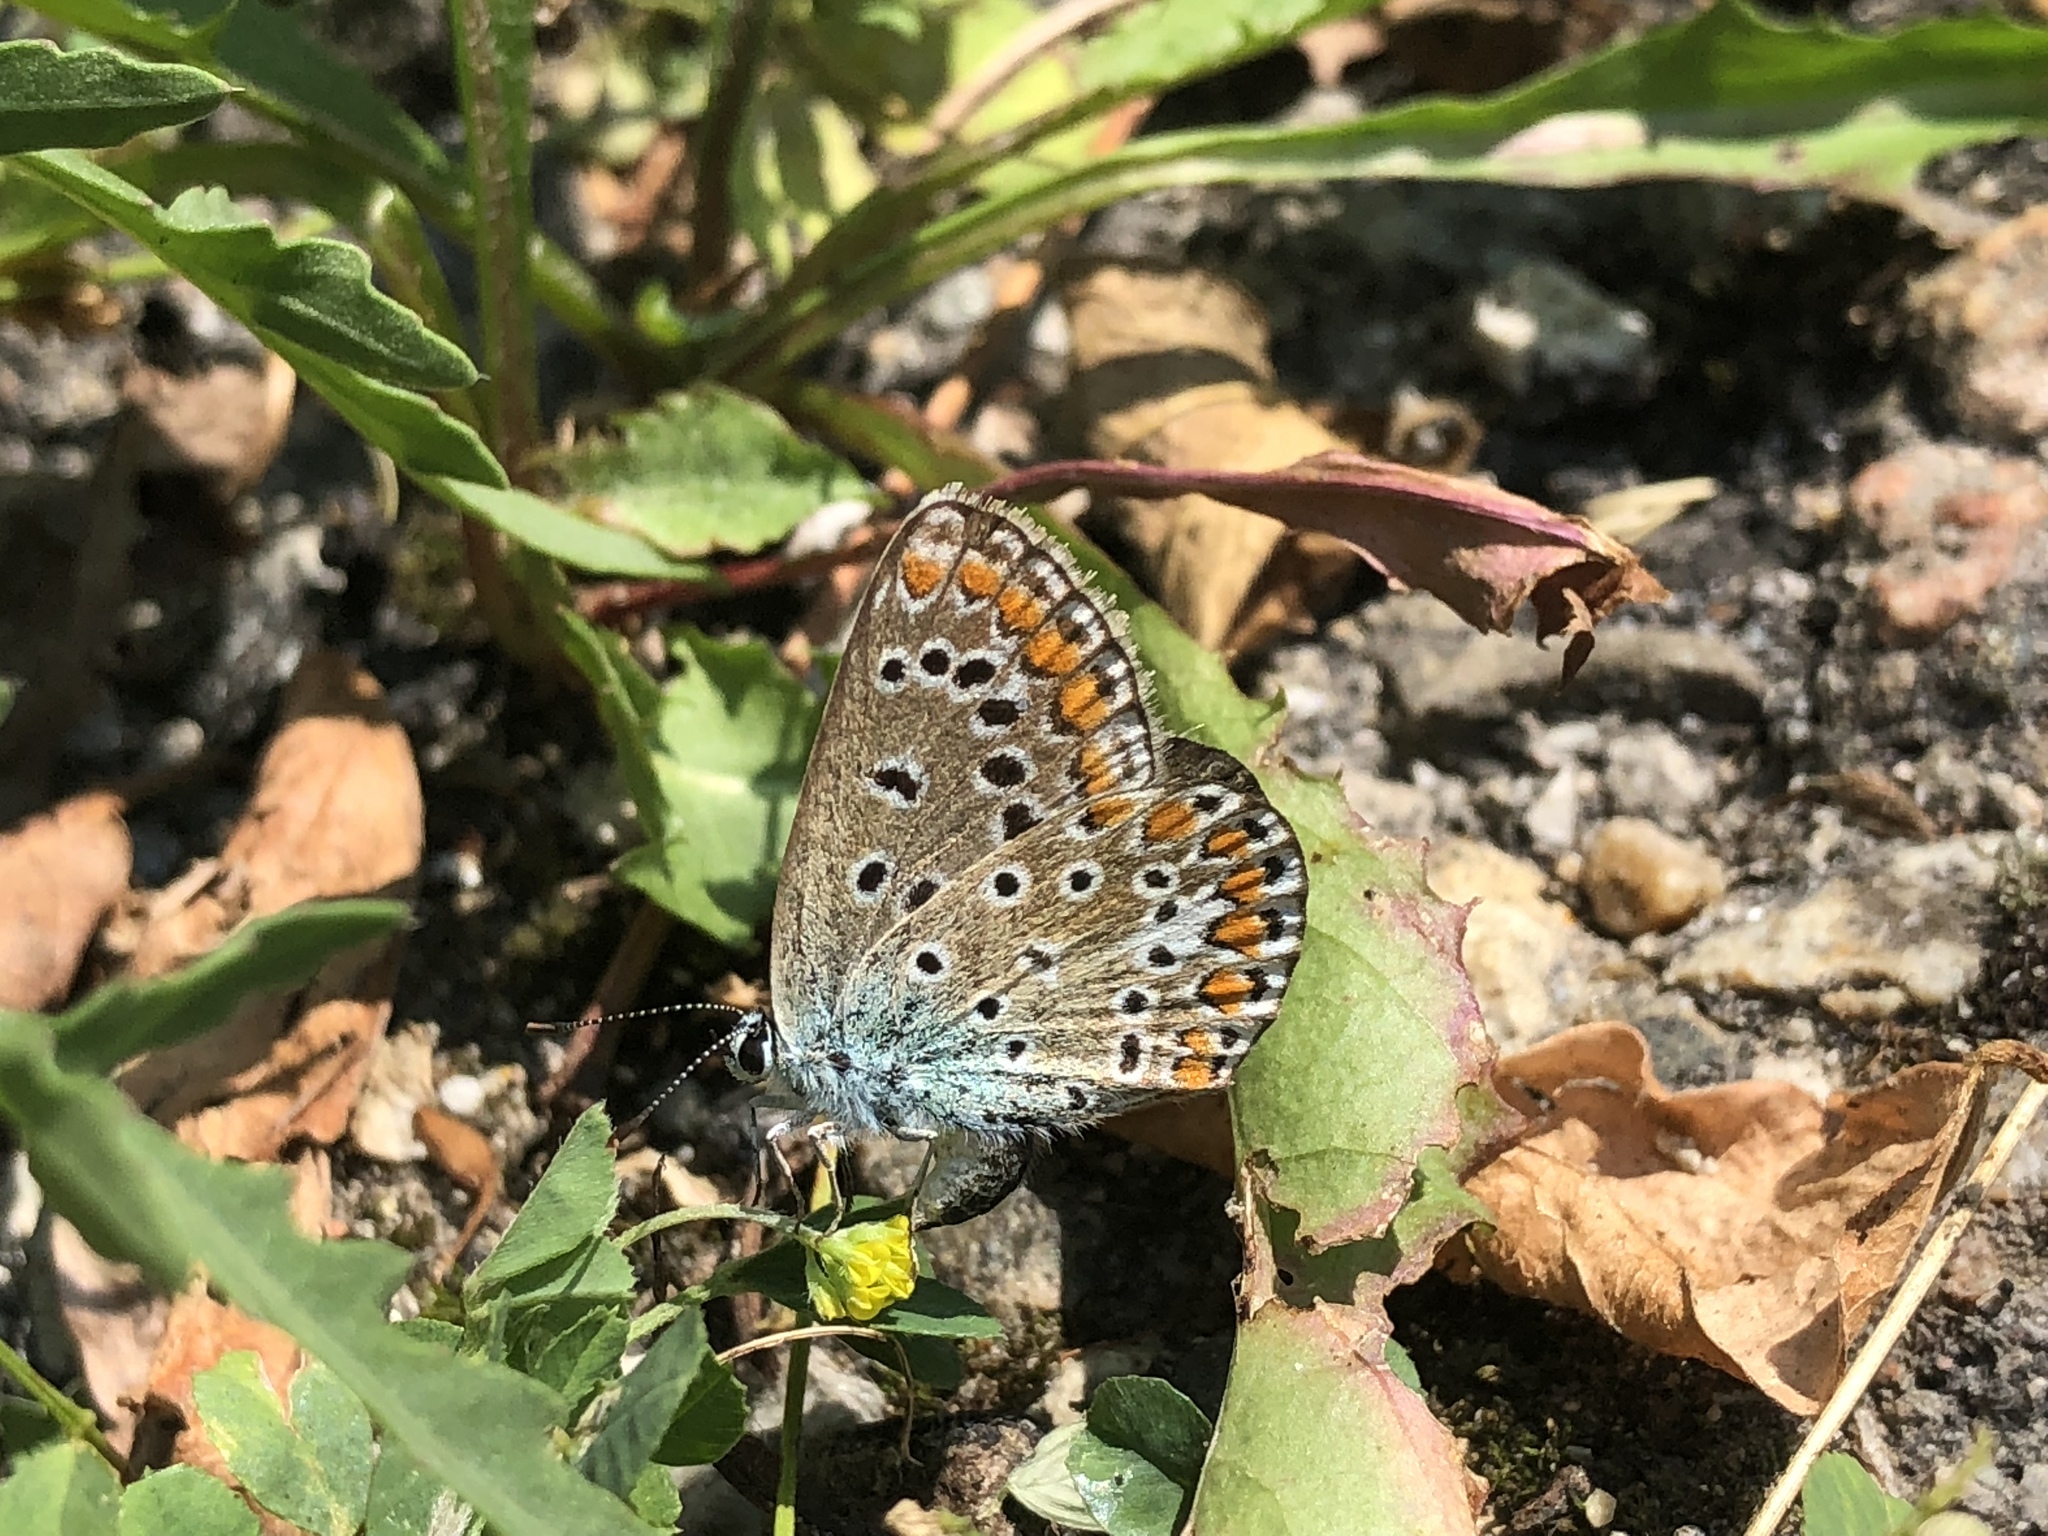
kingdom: Animalia
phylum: Arthropoda
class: Insecta
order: Lepidoptera
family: Lycaenidae
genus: Polyommatus
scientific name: Polyommatus icarus
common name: Common blue
